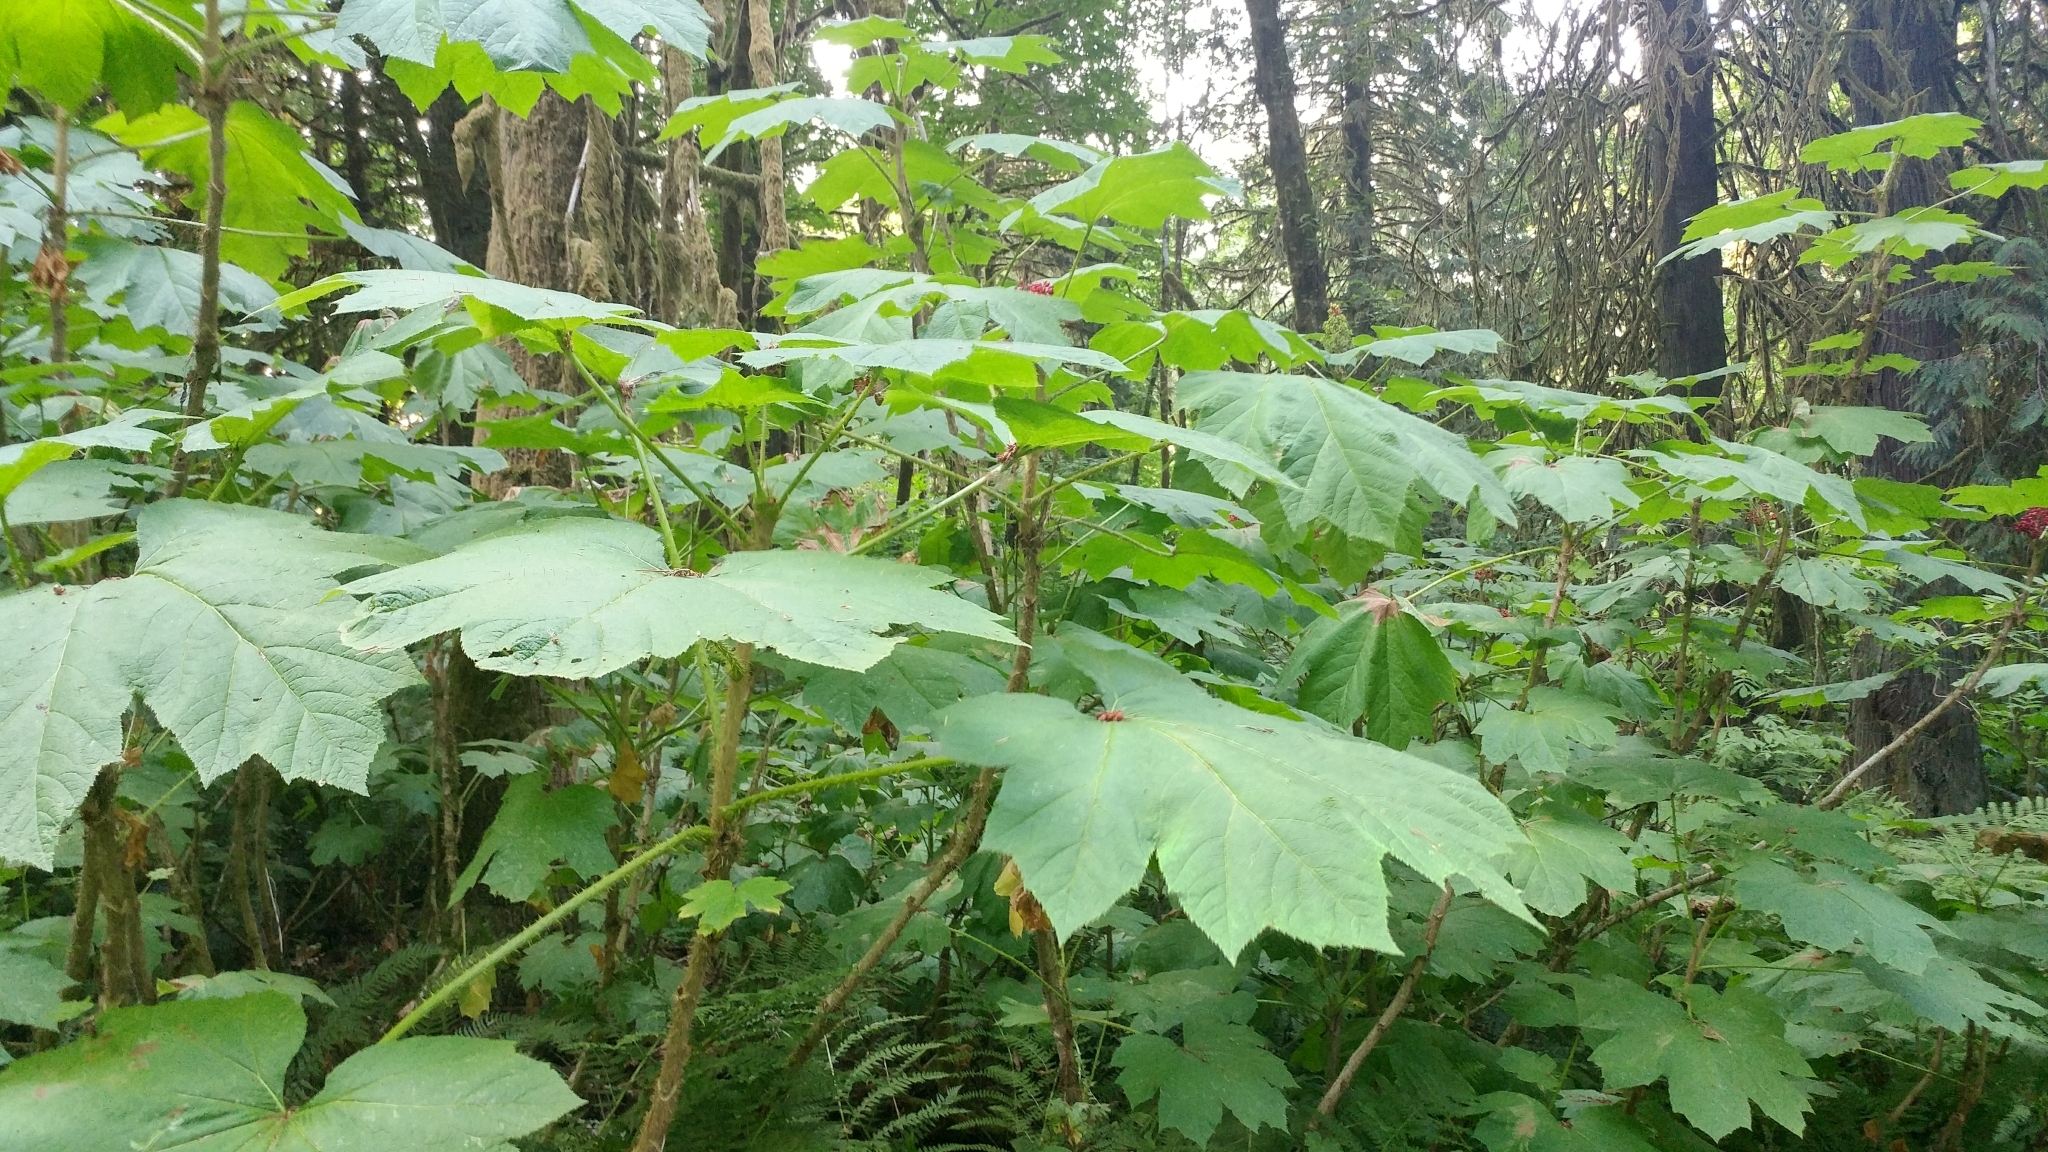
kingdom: Plantae
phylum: Tracheophyta
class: Magnoliopsida
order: Apiales
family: Araliaceae
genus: Oplopanax
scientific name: Oplopanax horridus
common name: Devil's walking-stick
